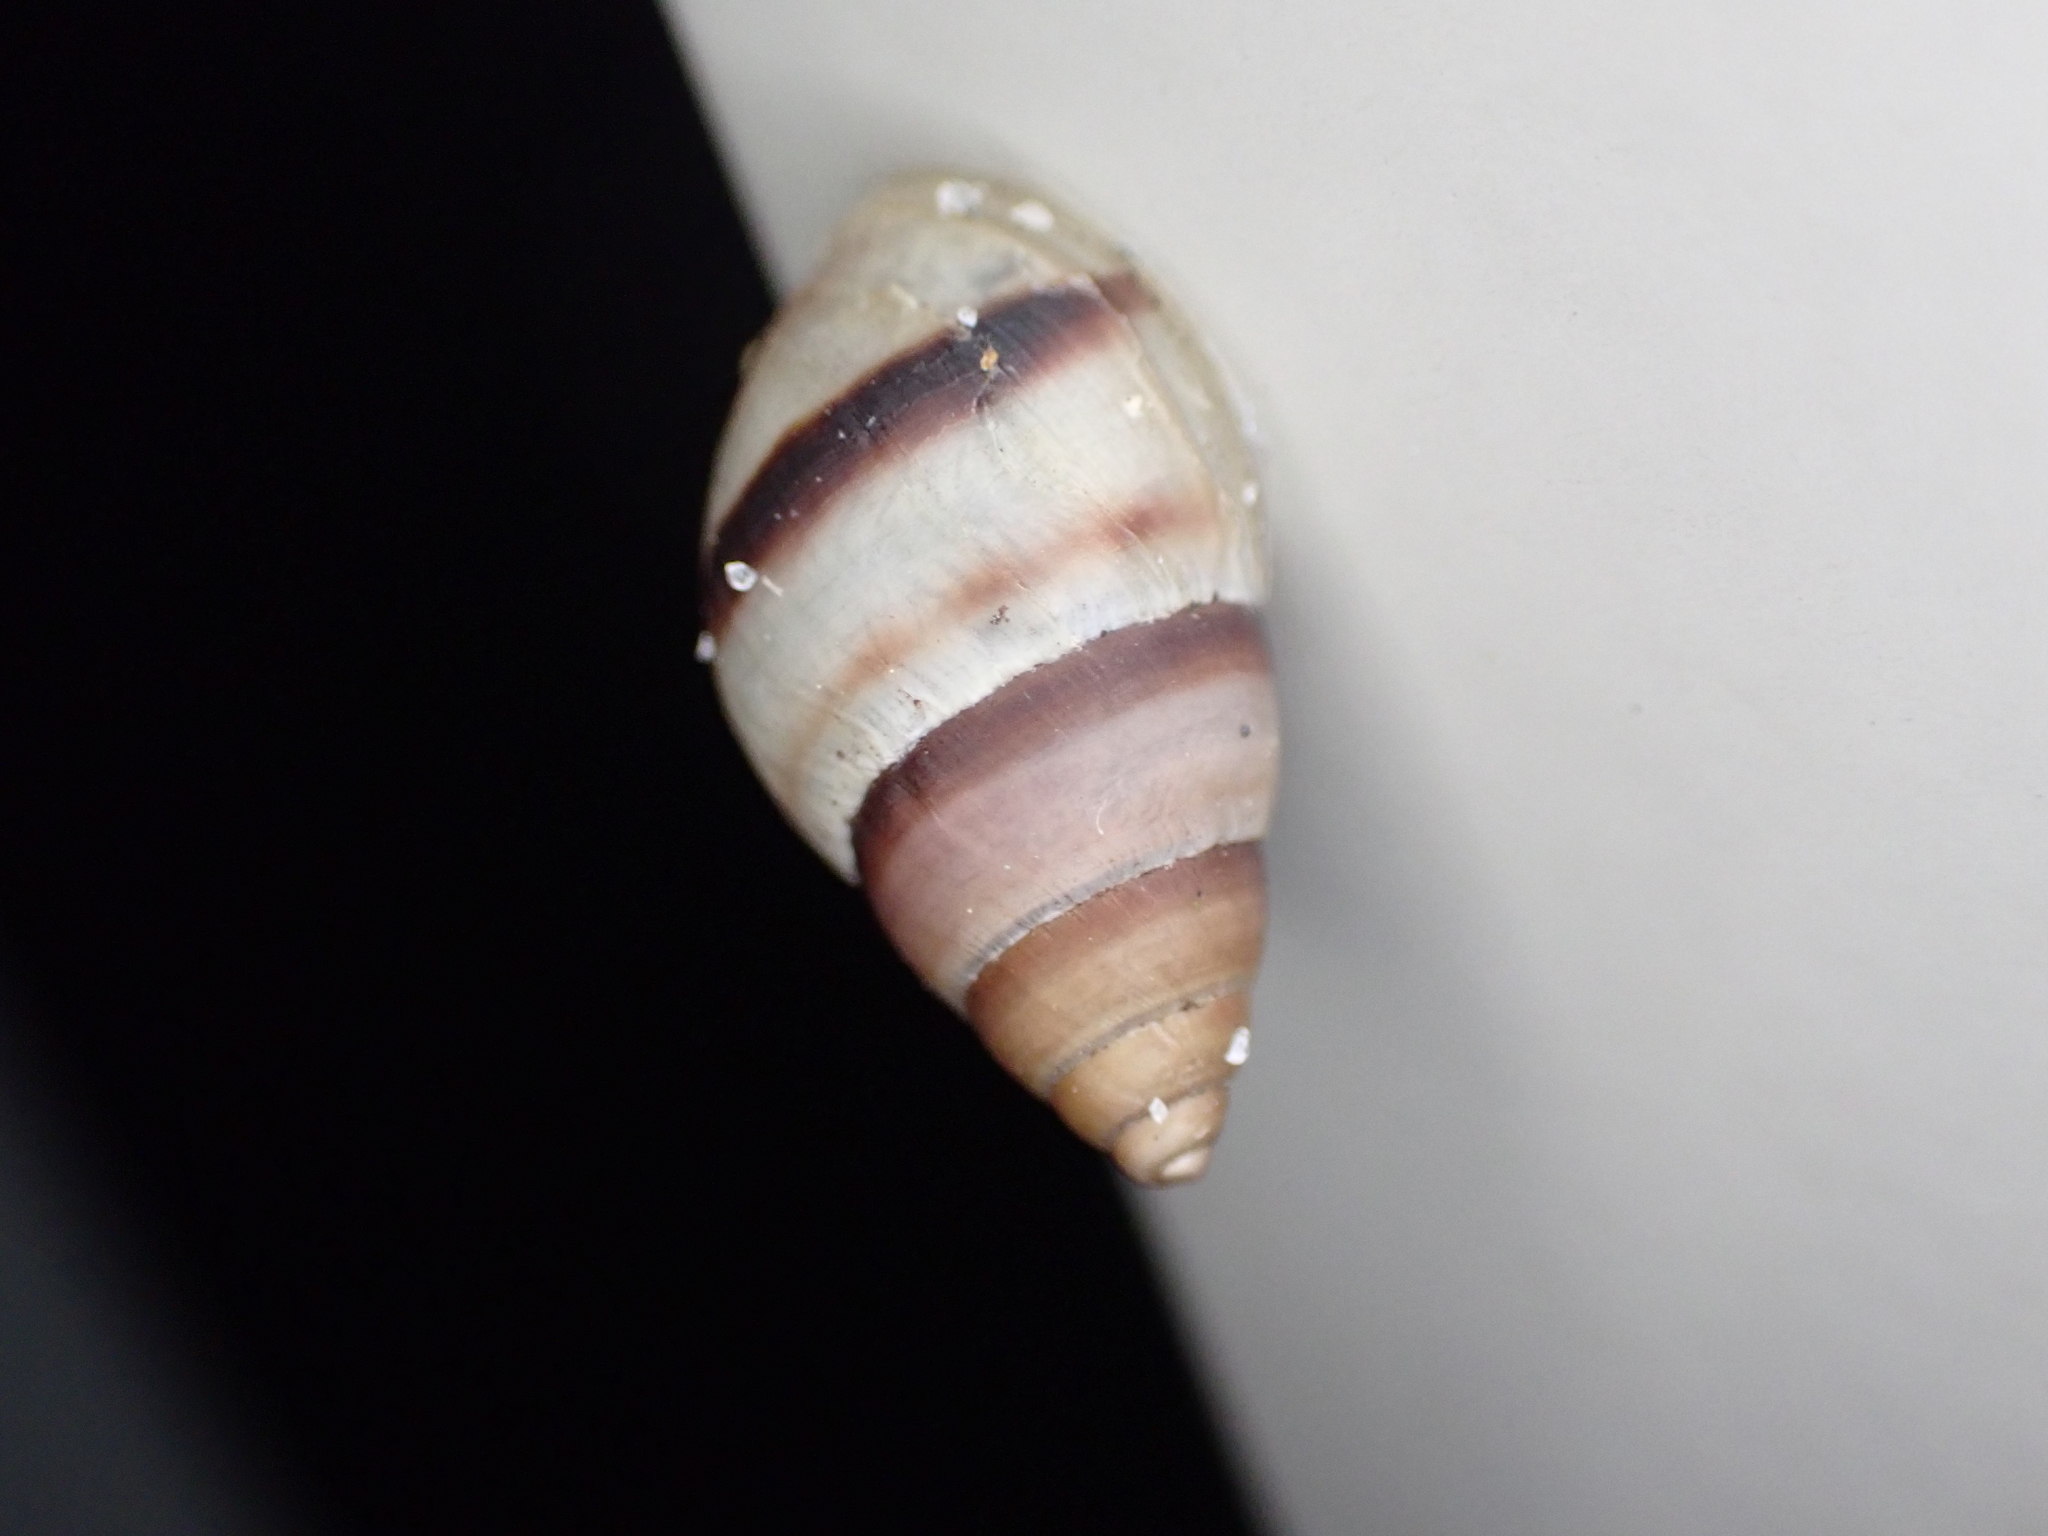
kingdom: Animalia
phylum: Mollusca
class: Gastropoda
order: Stylommatophora
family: Bulimulidae
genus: Bulimulus
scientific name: Bulimulus guadalupensis
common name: West indian bulimulus
